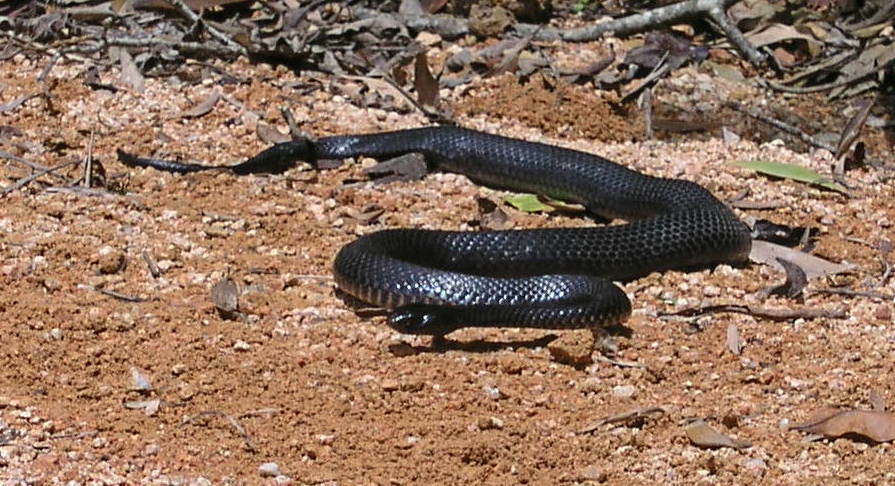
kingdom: Animalia
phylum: Chordata
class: Squamata
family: Elapidae
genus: Pseudechis
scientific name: Pseudechis porphyriacus
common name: Australian black snake
